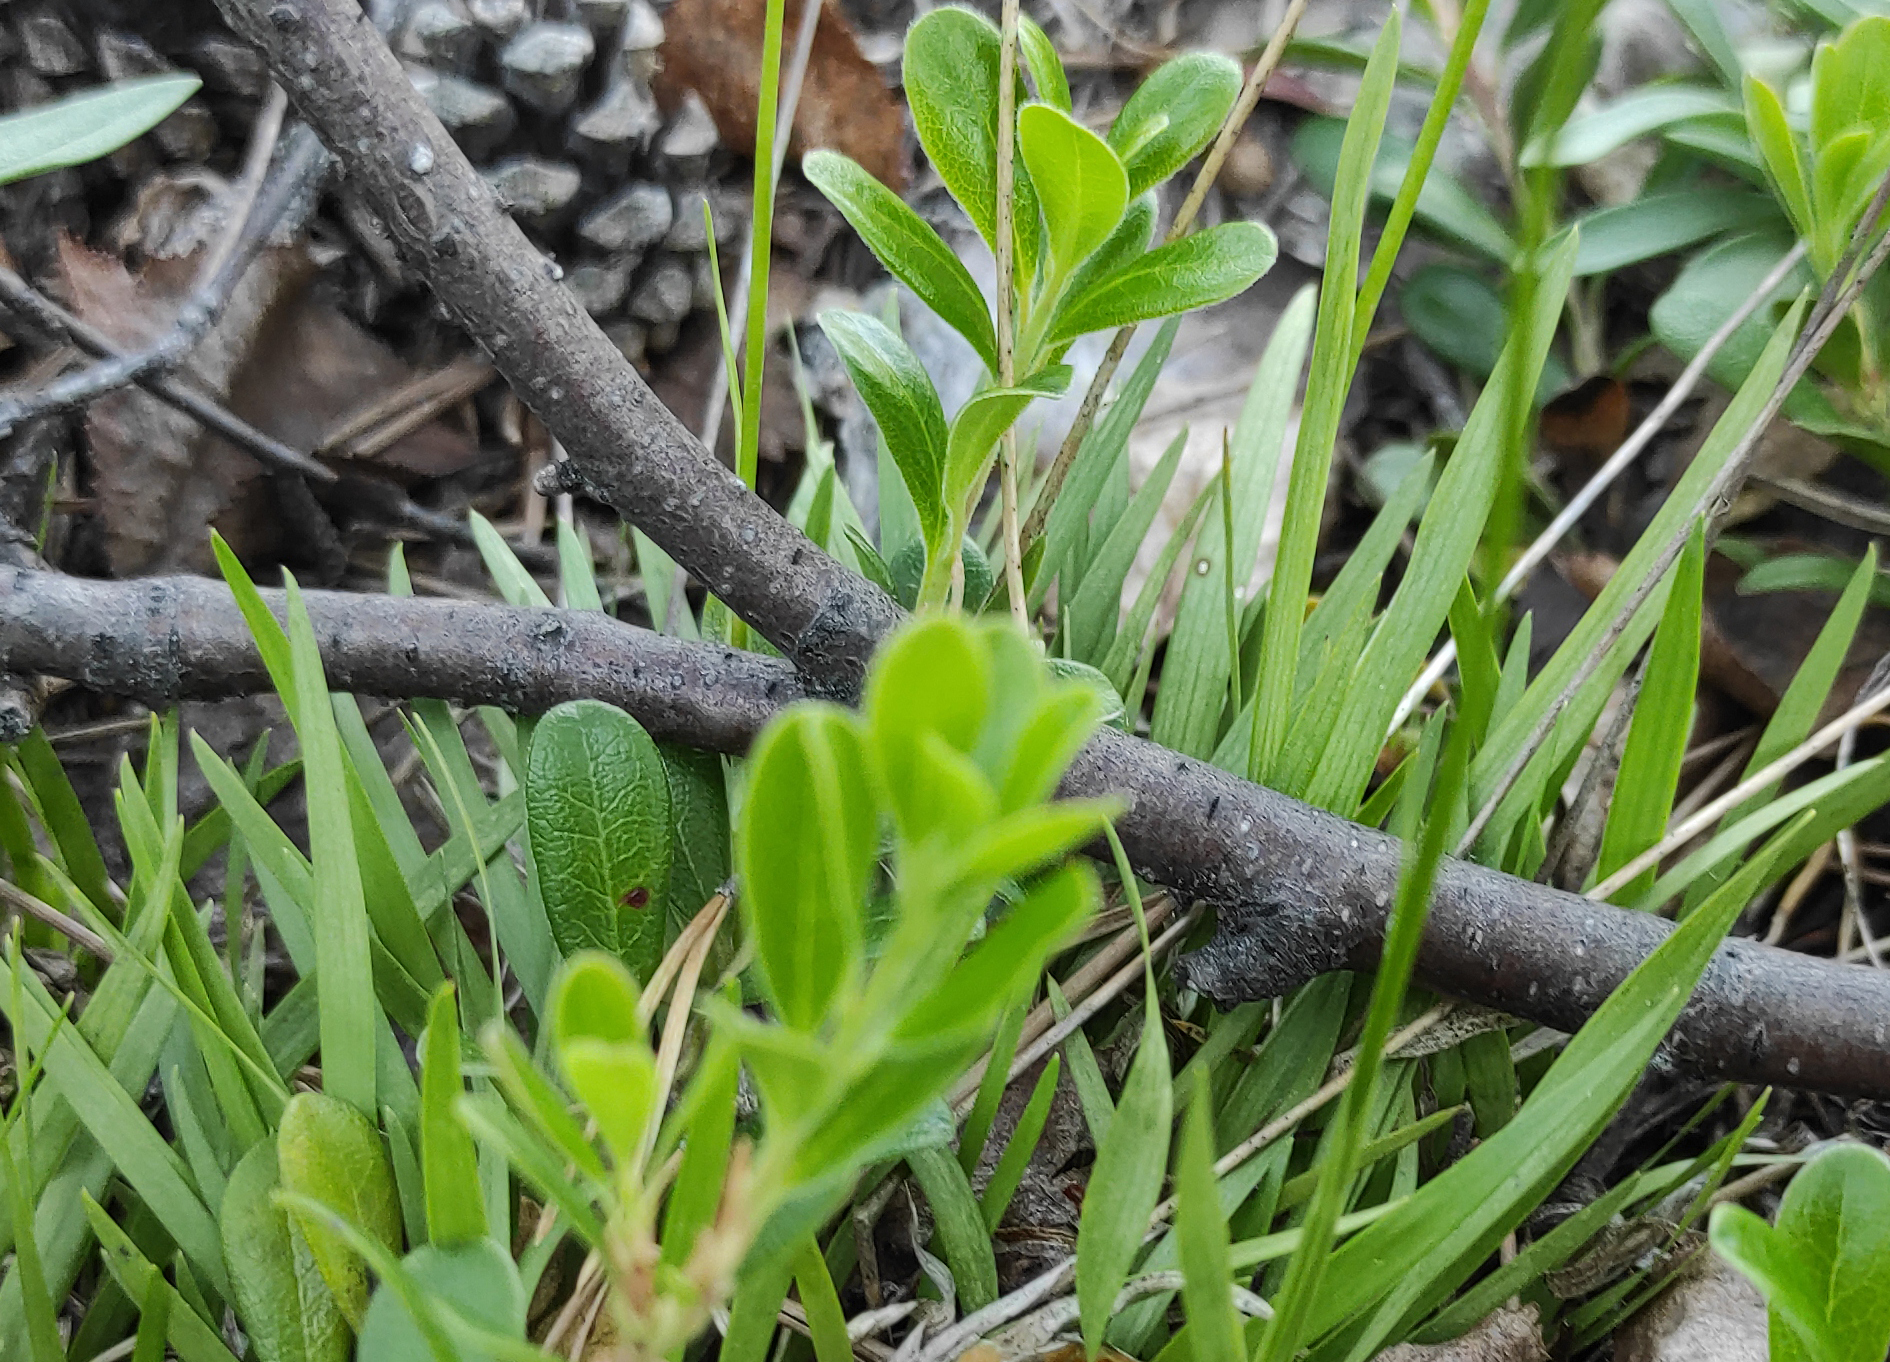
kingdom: Plantae
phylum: Tracheophyta
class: Magnoliopsida
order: Ericales
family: Ericaceae
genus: Arctostaphylos
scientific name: Arctostaphylos uva-ursi
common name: Bearberry
